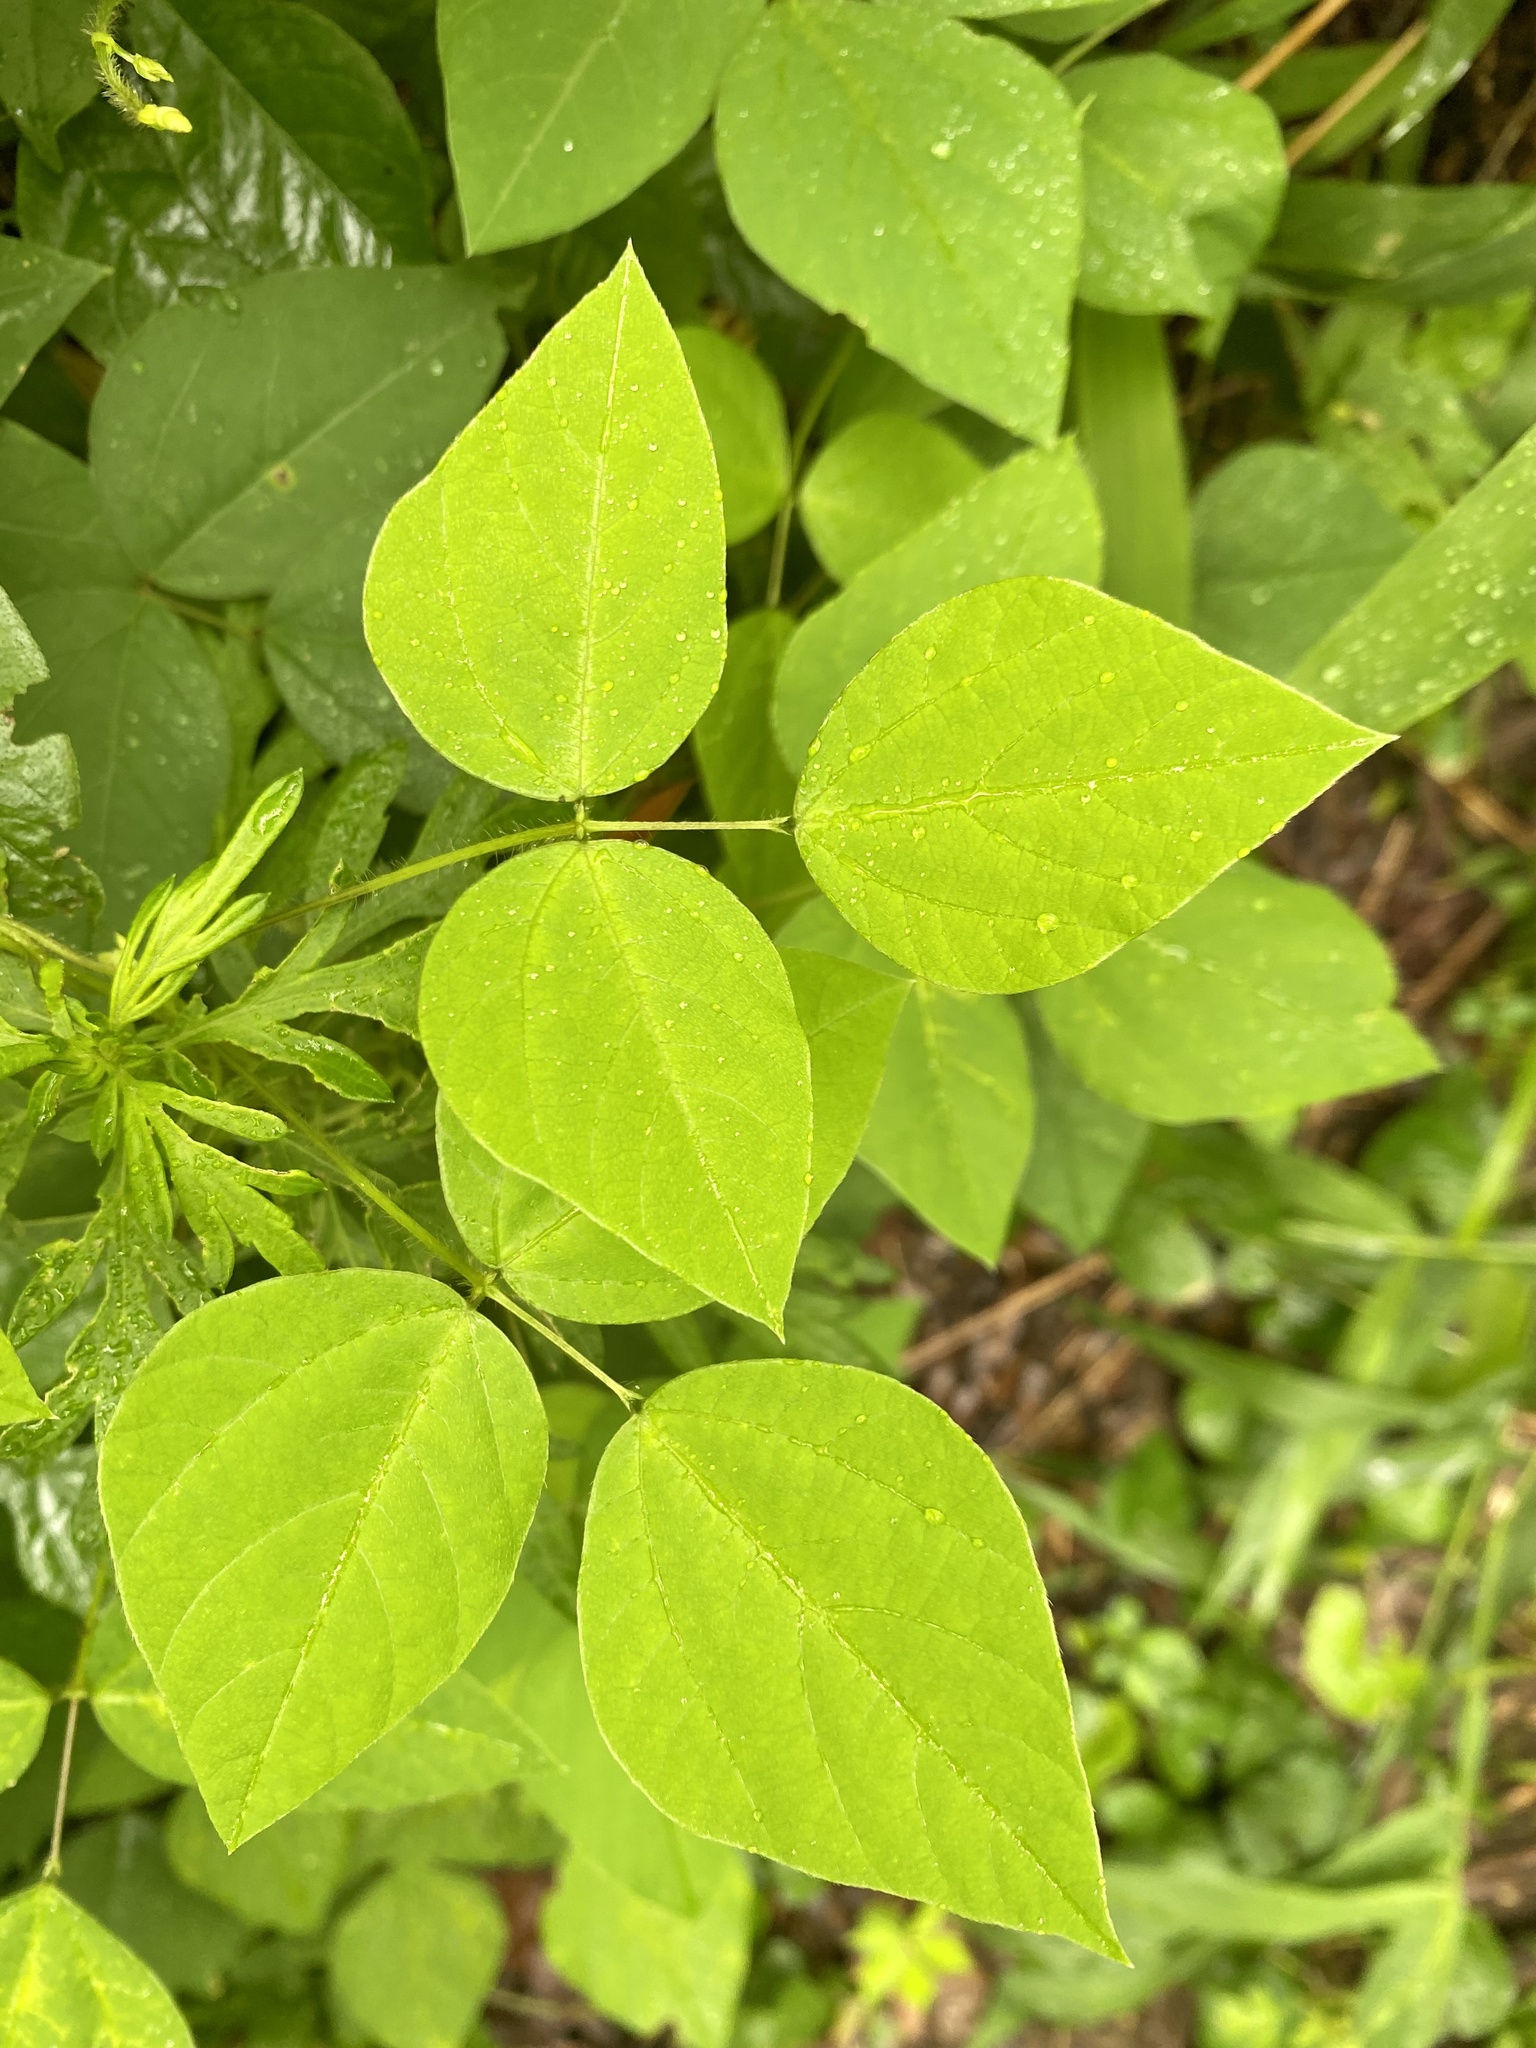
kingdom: Plantae
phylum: Tracheophyta
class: Magnoliopsida
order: Fabales
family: Fabaceae
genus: Amphicarpaea
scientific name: Amphicarpaea bracteata
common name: American hog peanut
